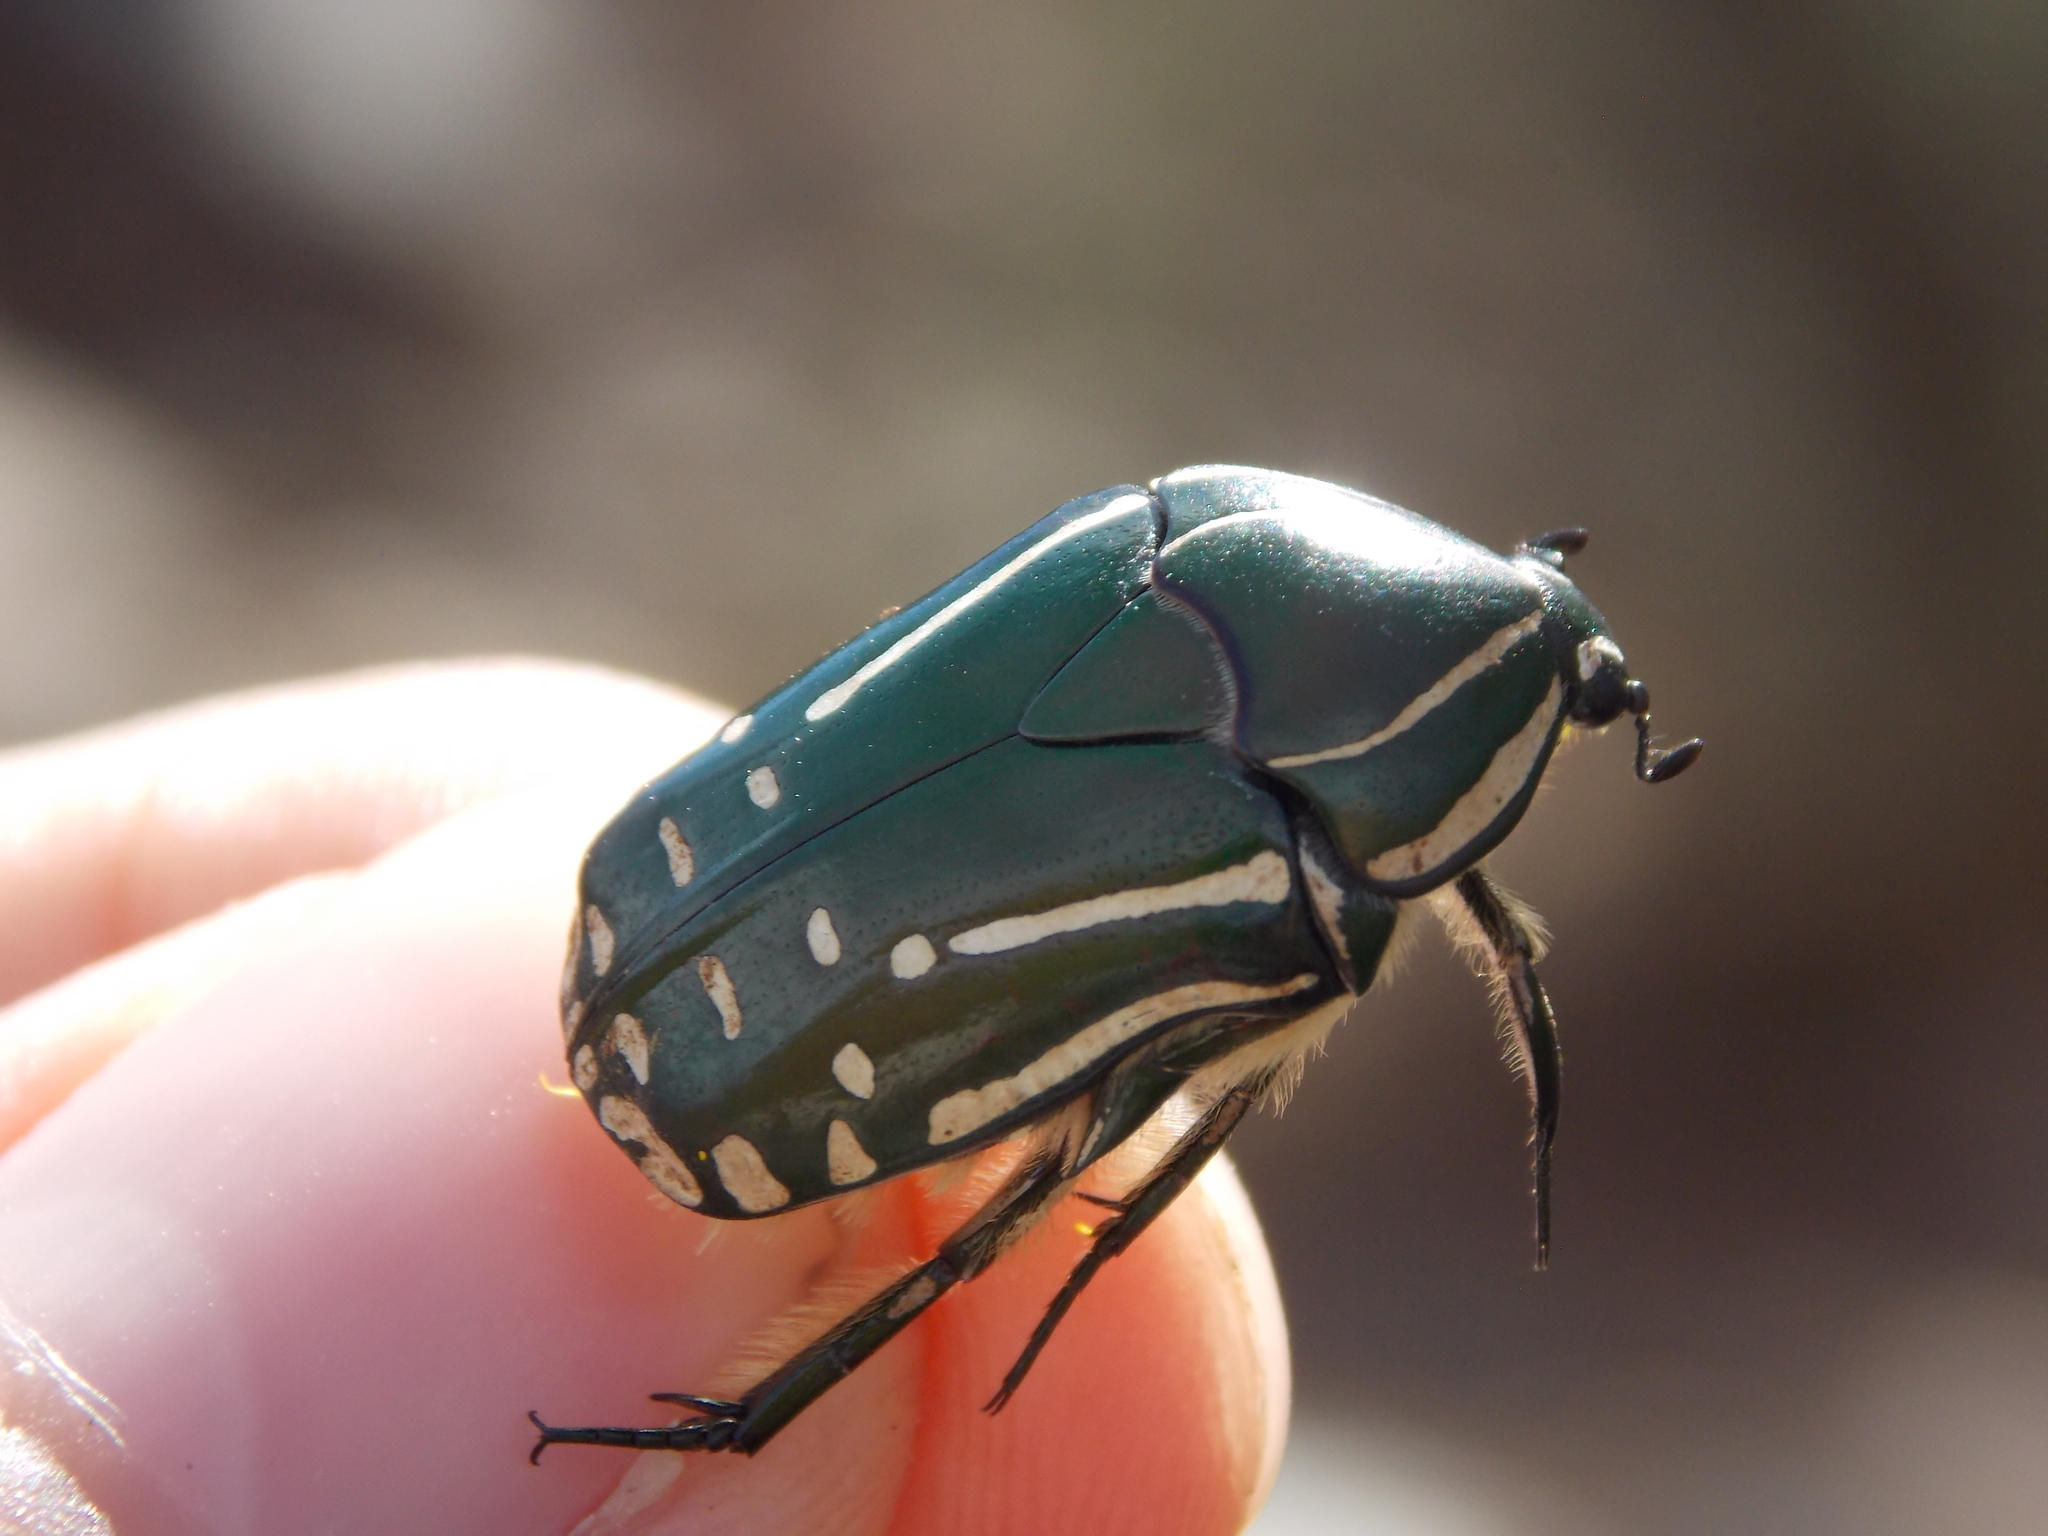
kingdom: Animalia
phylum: Arthropoda
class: Insecta
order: Coleoptera
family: Scarabaeidae
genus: Rhabdotis
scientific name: Rhabdotis semipunctata
